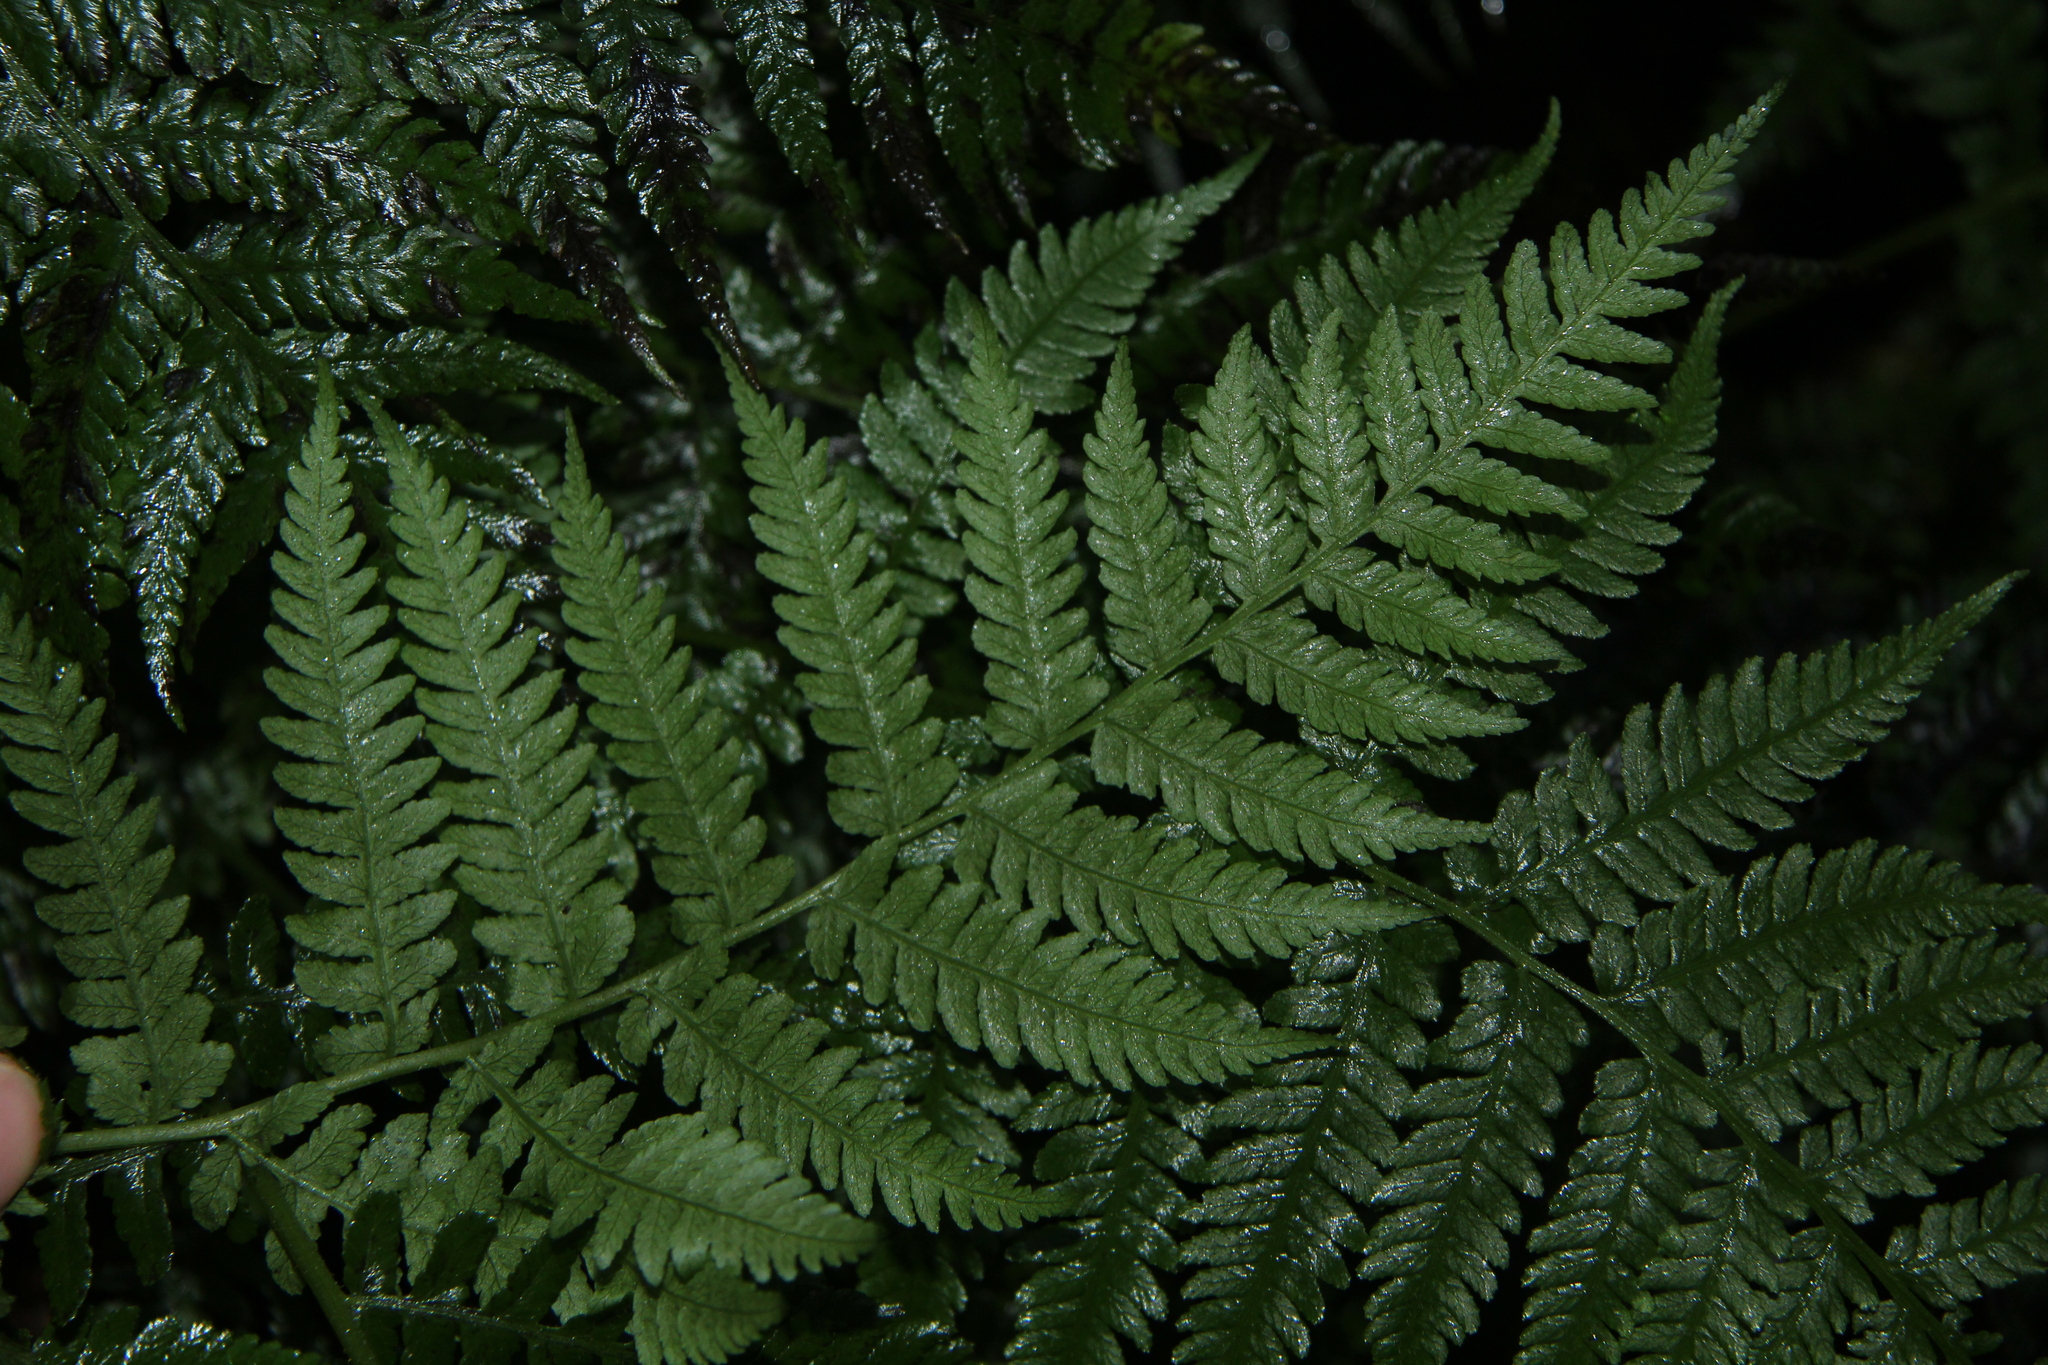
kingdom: Plantae
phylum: Tracheophyta
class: Polypodiopsida
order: Polypodiales
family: Athyriaceae
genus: Diplazium
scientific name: Diplazium congruum
